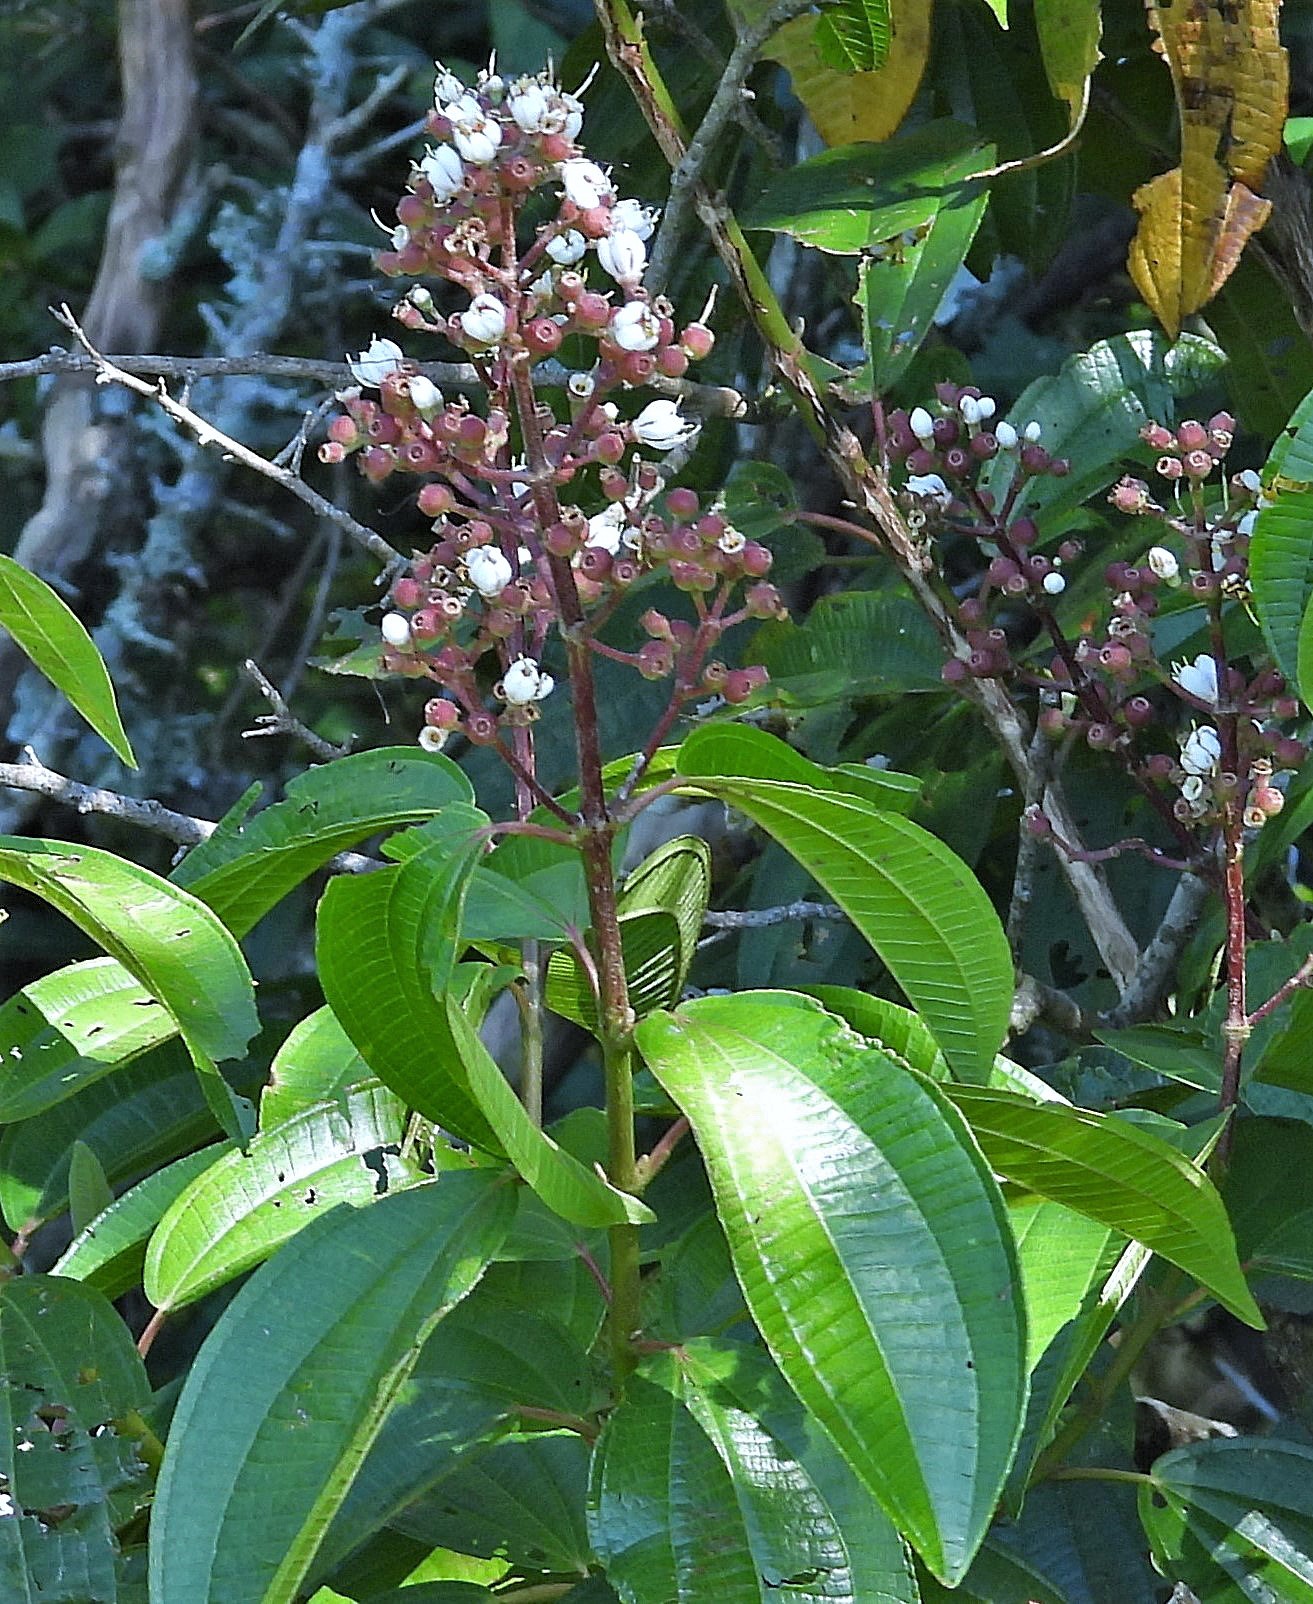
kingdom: Plantae
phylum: Tracheophyta
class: Magnoliopsida
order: Myrtales
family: Melastomataceae
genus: Miconia
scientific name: Miconia chamissois
